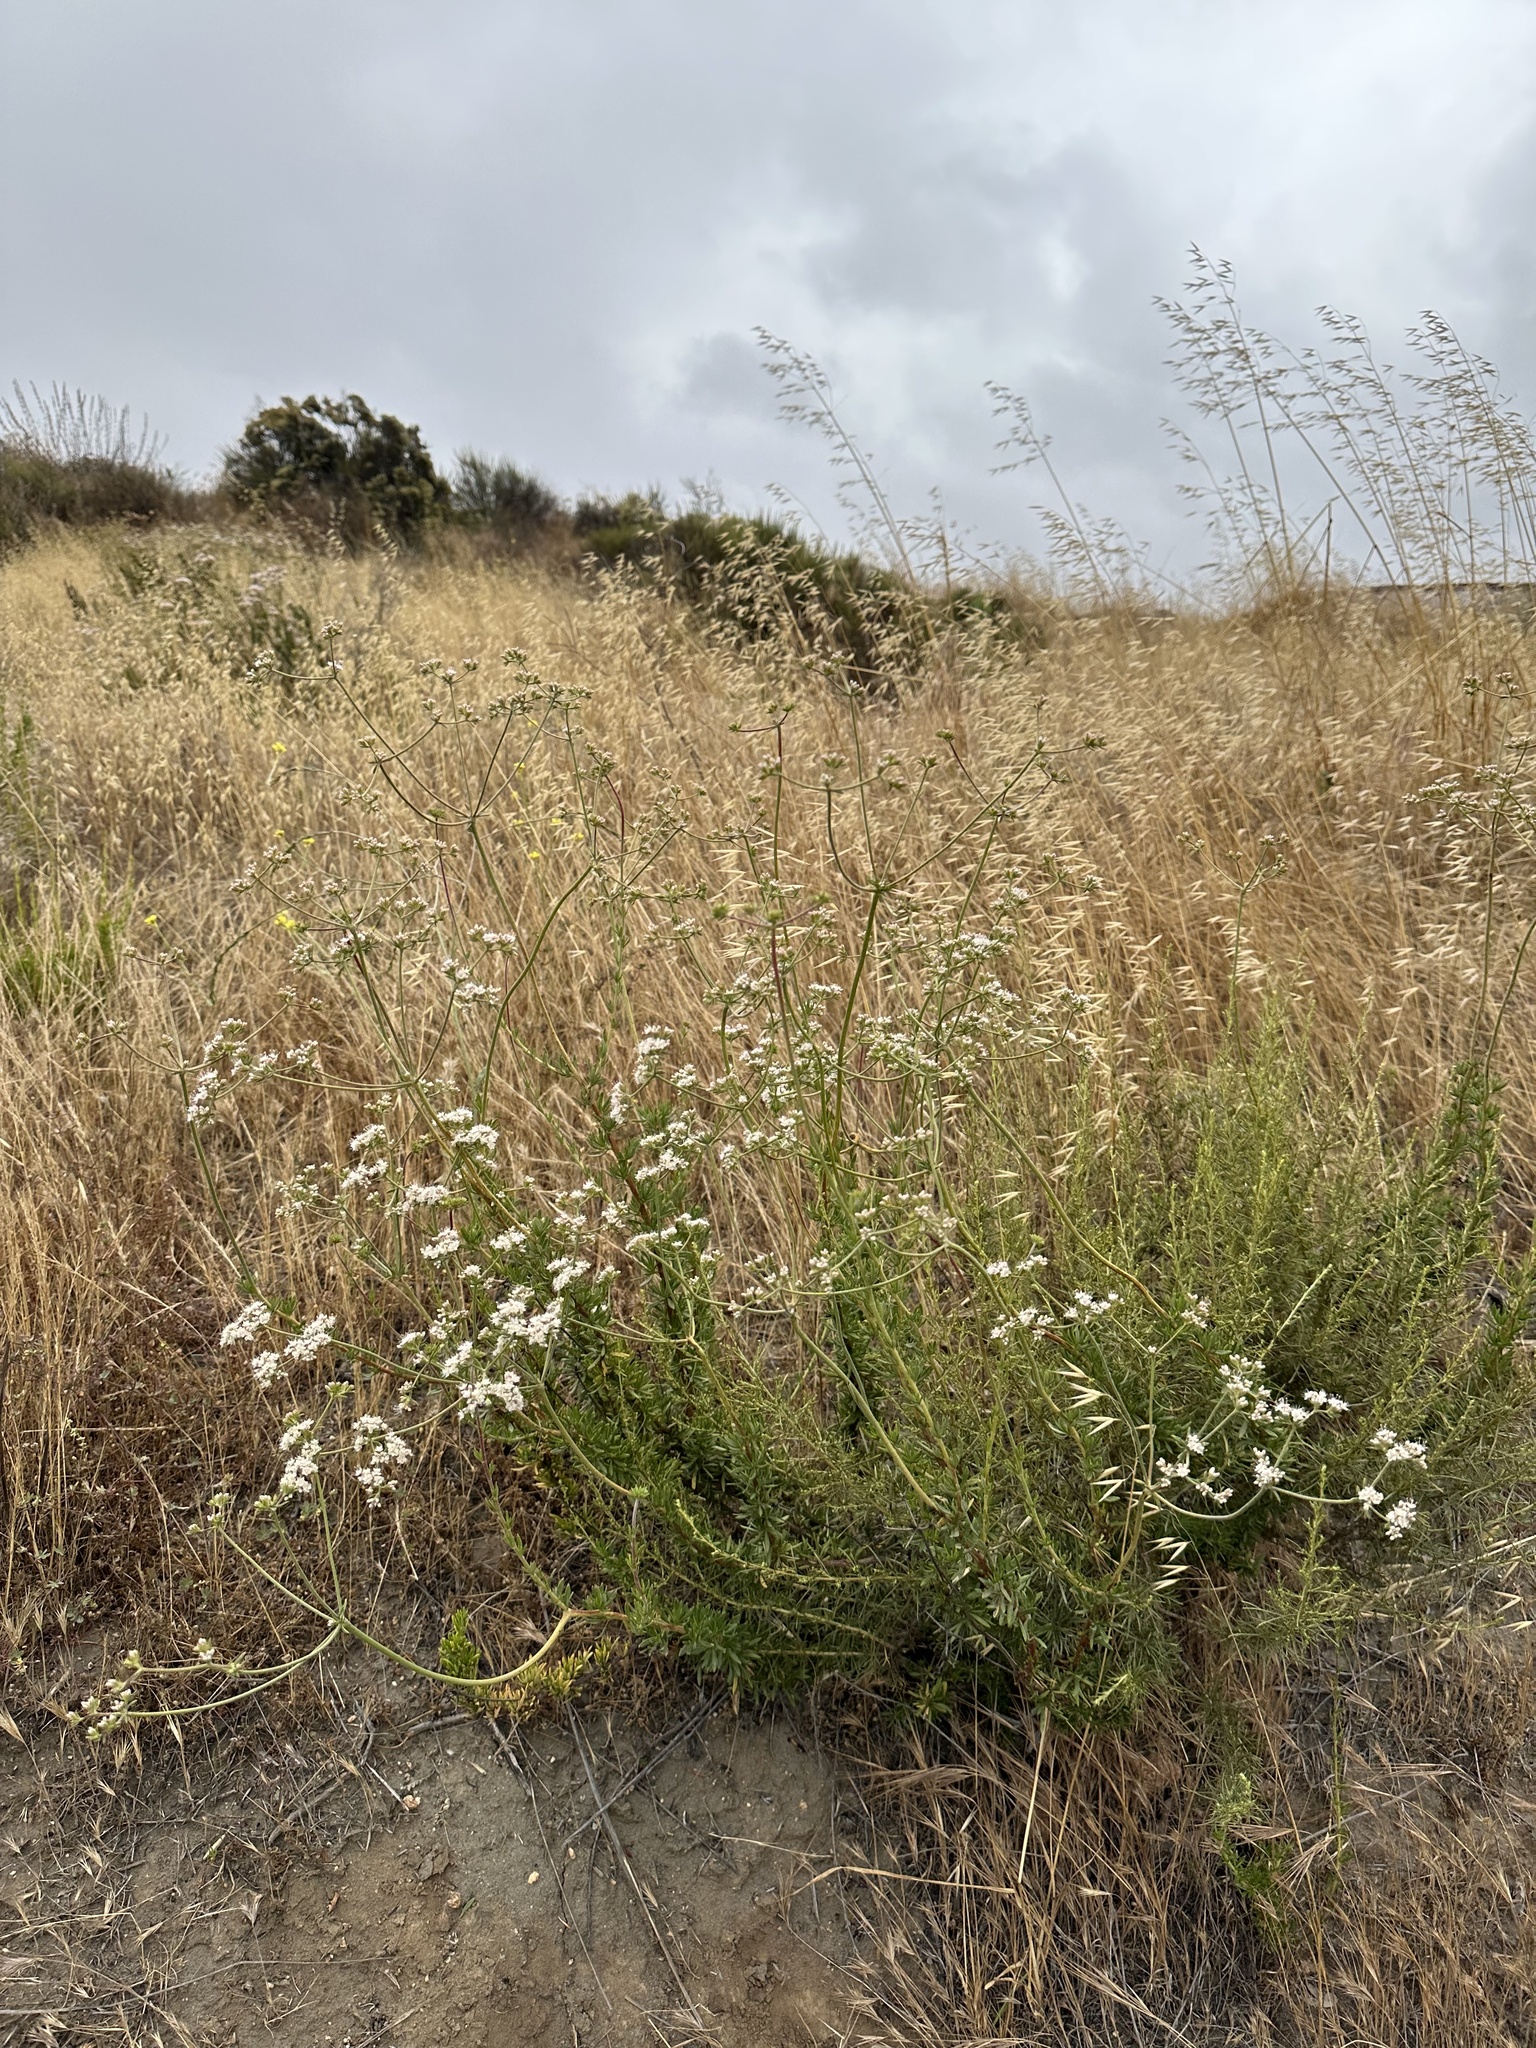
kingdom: Plantae
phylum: Tracheophyta
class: Magnoliopsida
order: Caryophyllales
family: Polygonaceae
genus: Eriogonum
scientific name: Eriogonum fasciculatum
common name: California wild buckwheat
